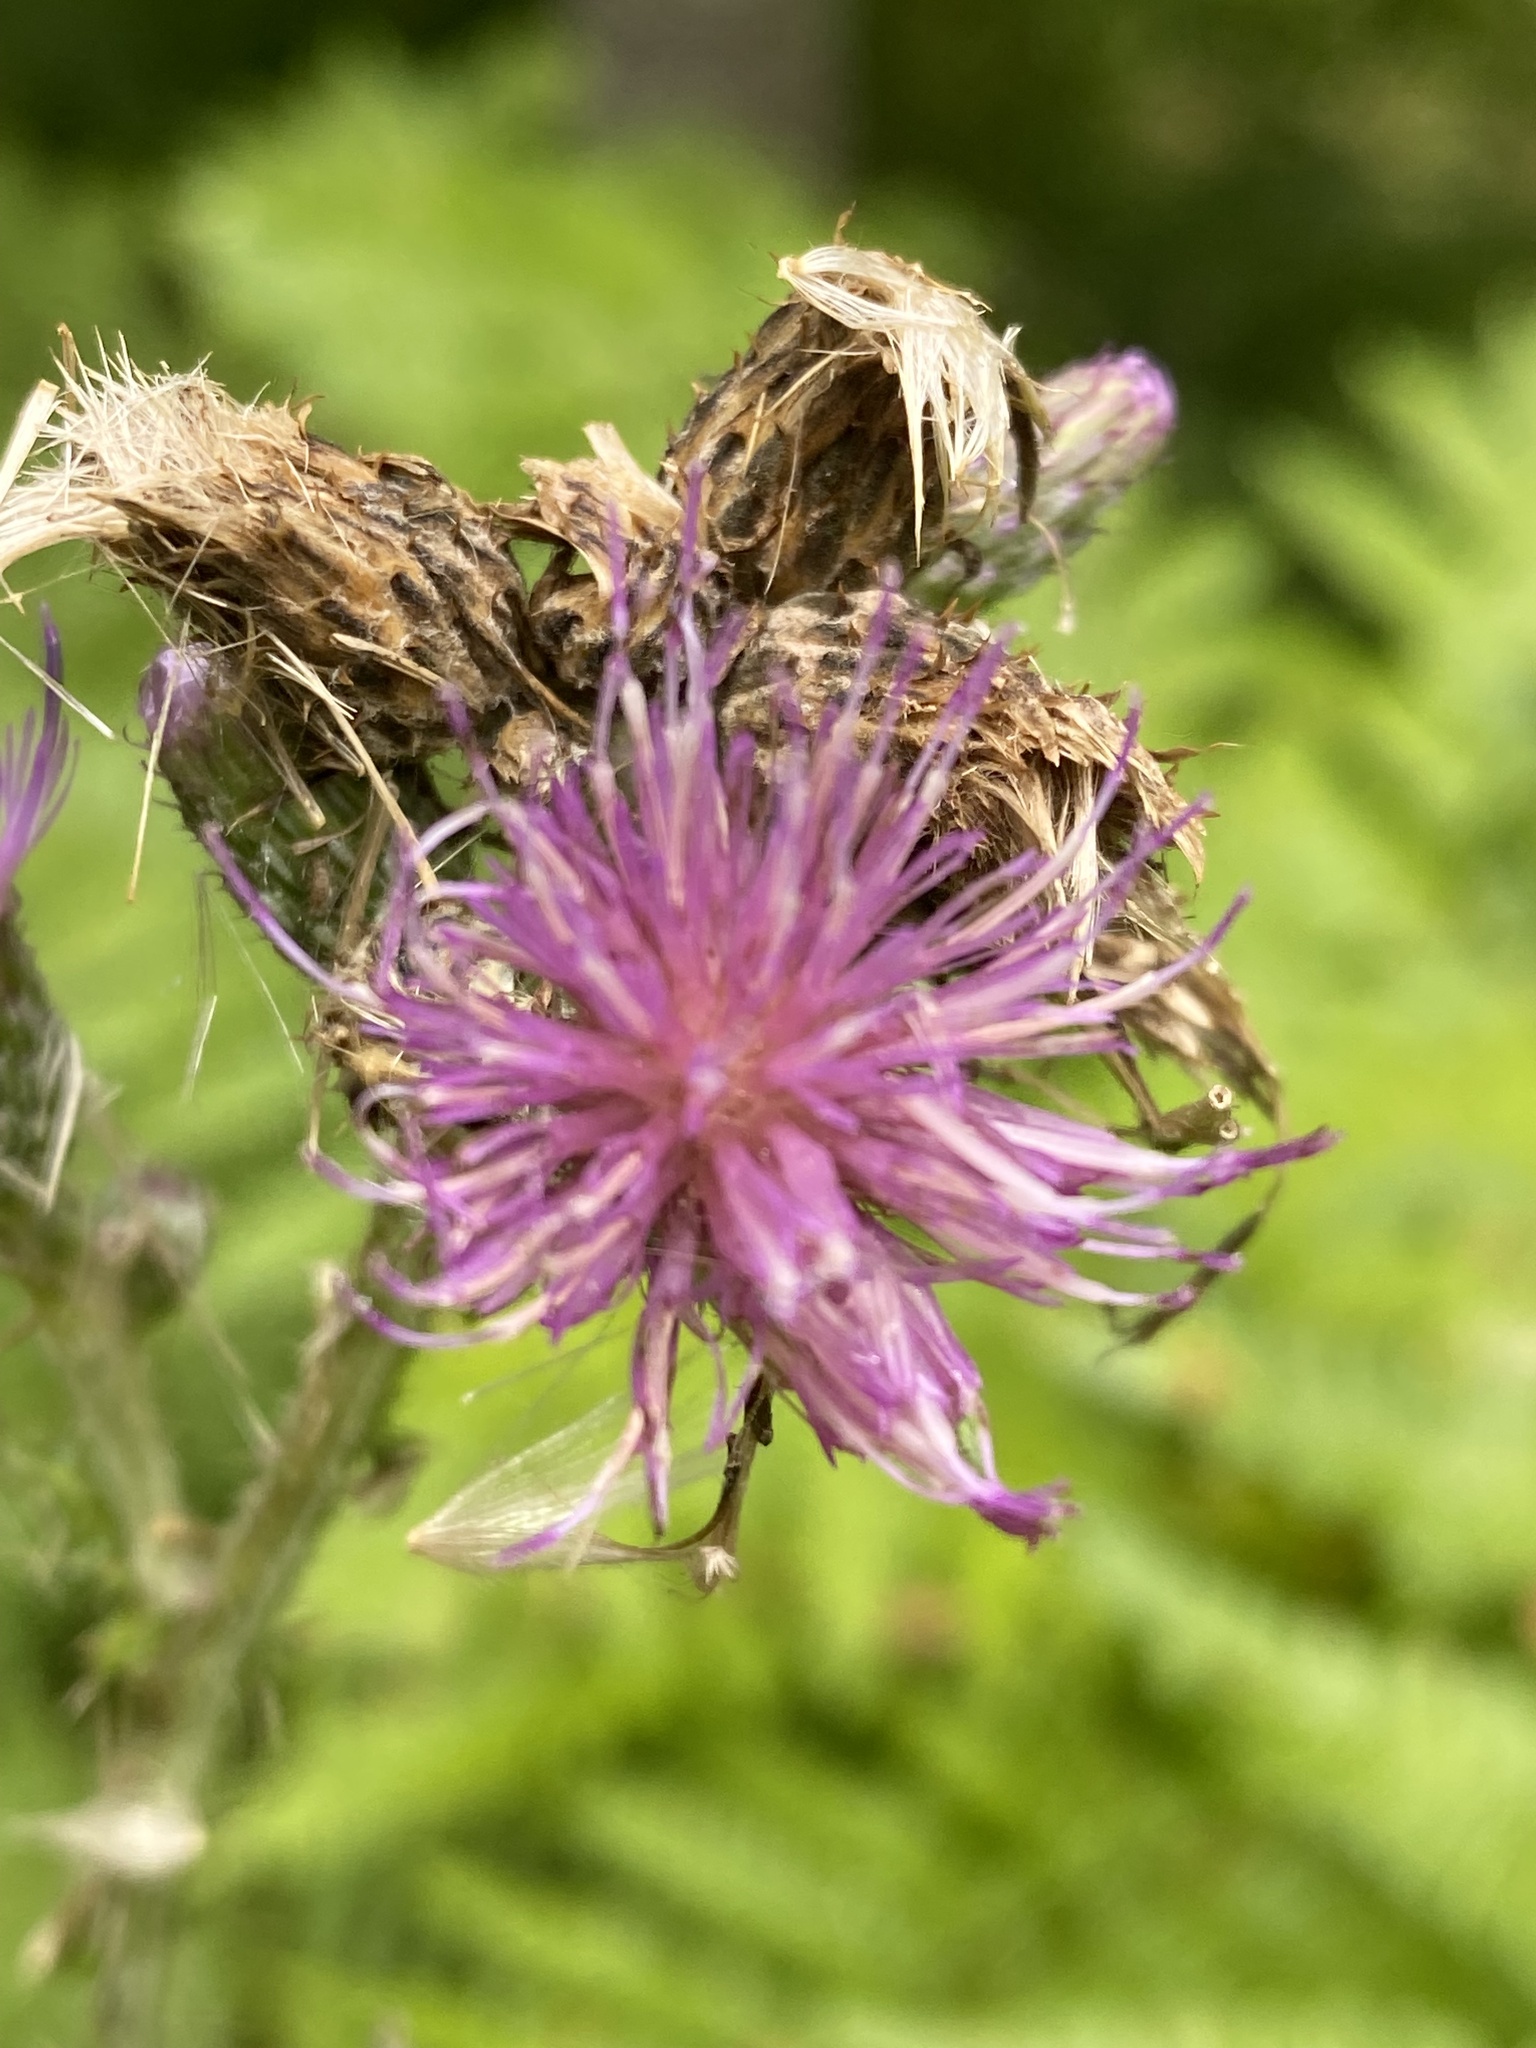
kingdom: Plantae
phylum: Tracheophyta
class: Magnoliopsida
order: Asterales
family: Asteraceae
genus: Cirsium
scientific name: Cirsium palustre
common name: Marsh thistle
